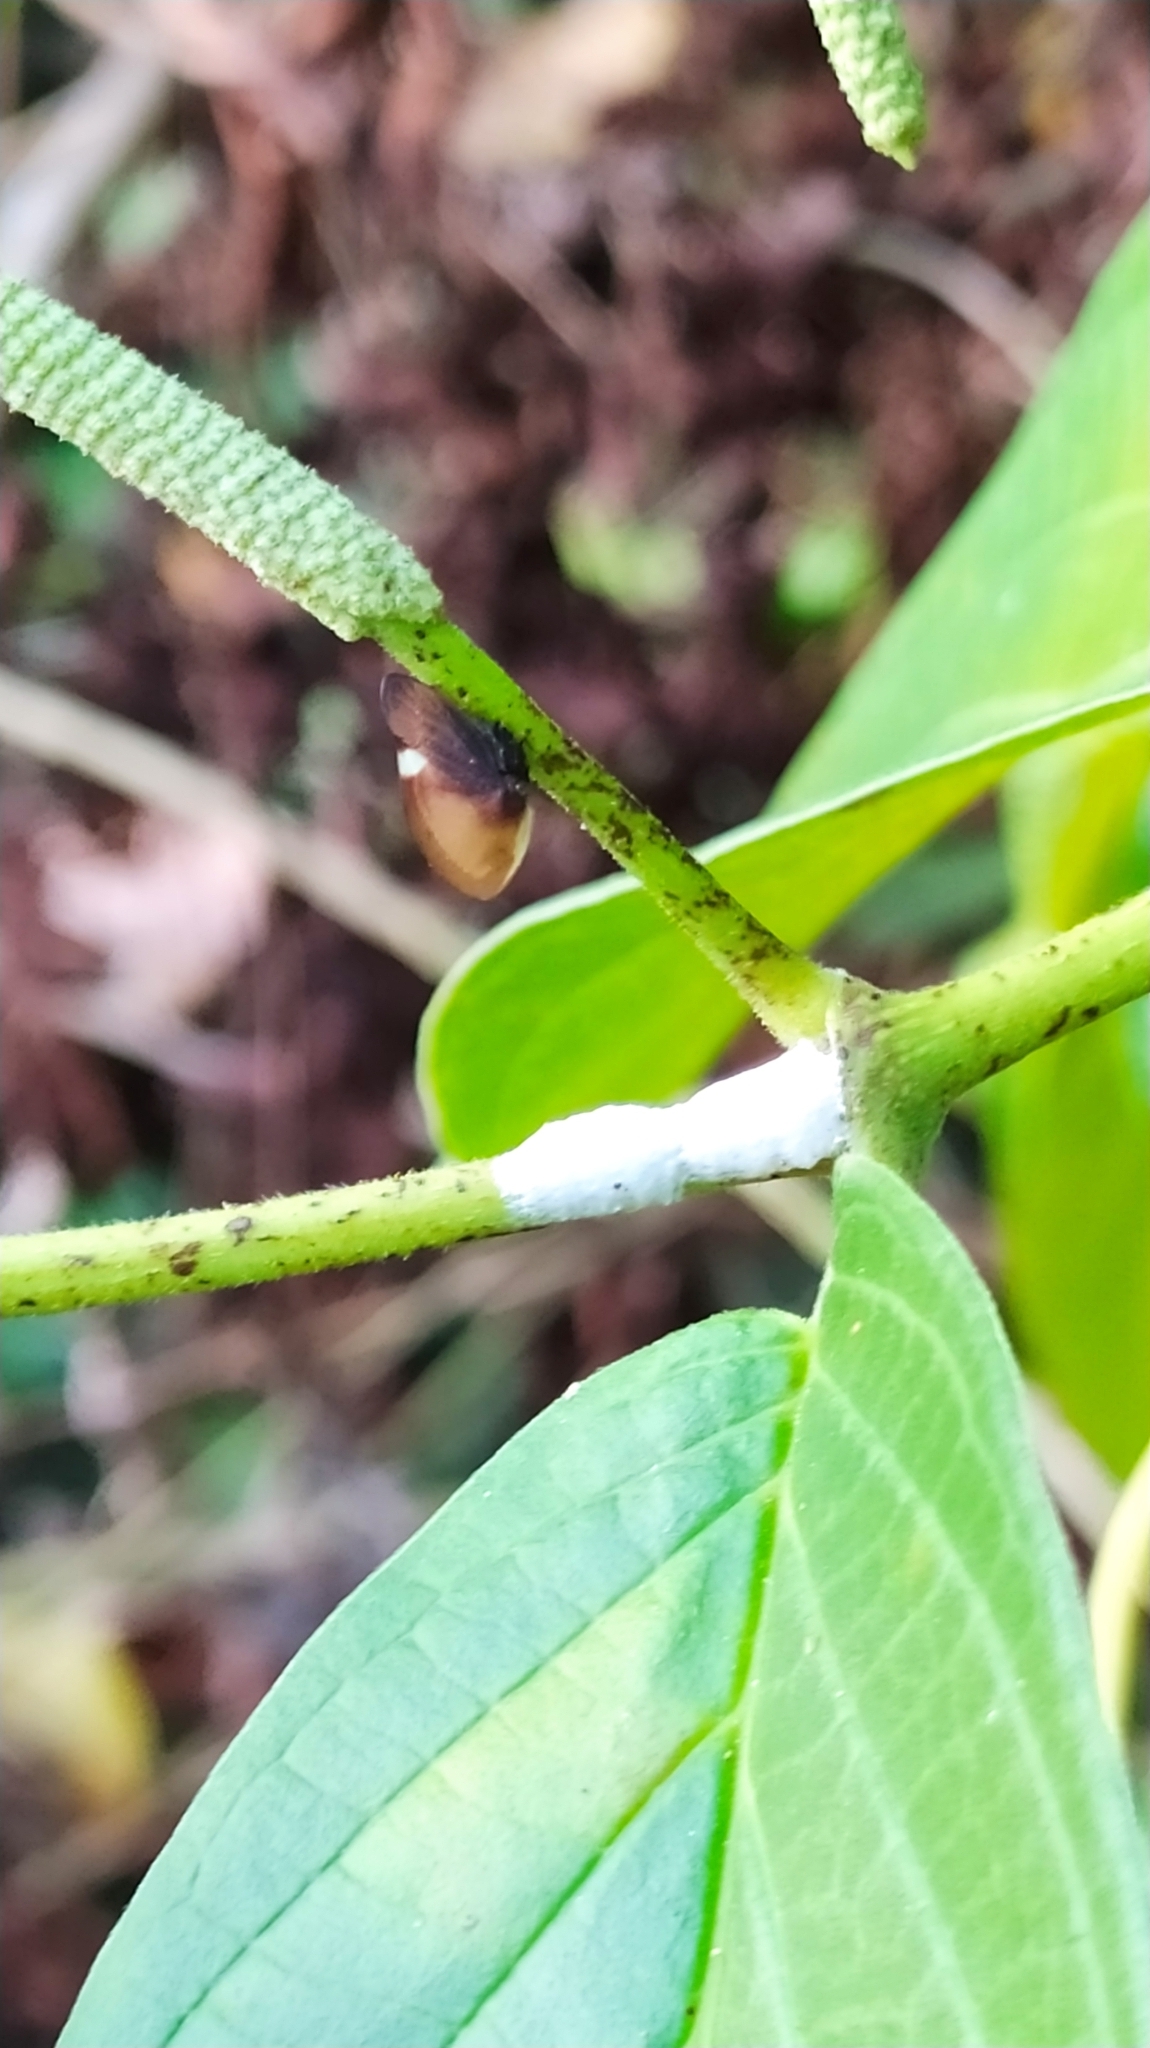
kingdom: Animalia
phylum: Arthropoda
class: Insecta
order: Hemiptera
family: Membracidae
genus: Membracis
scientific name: Membracis tectigera
